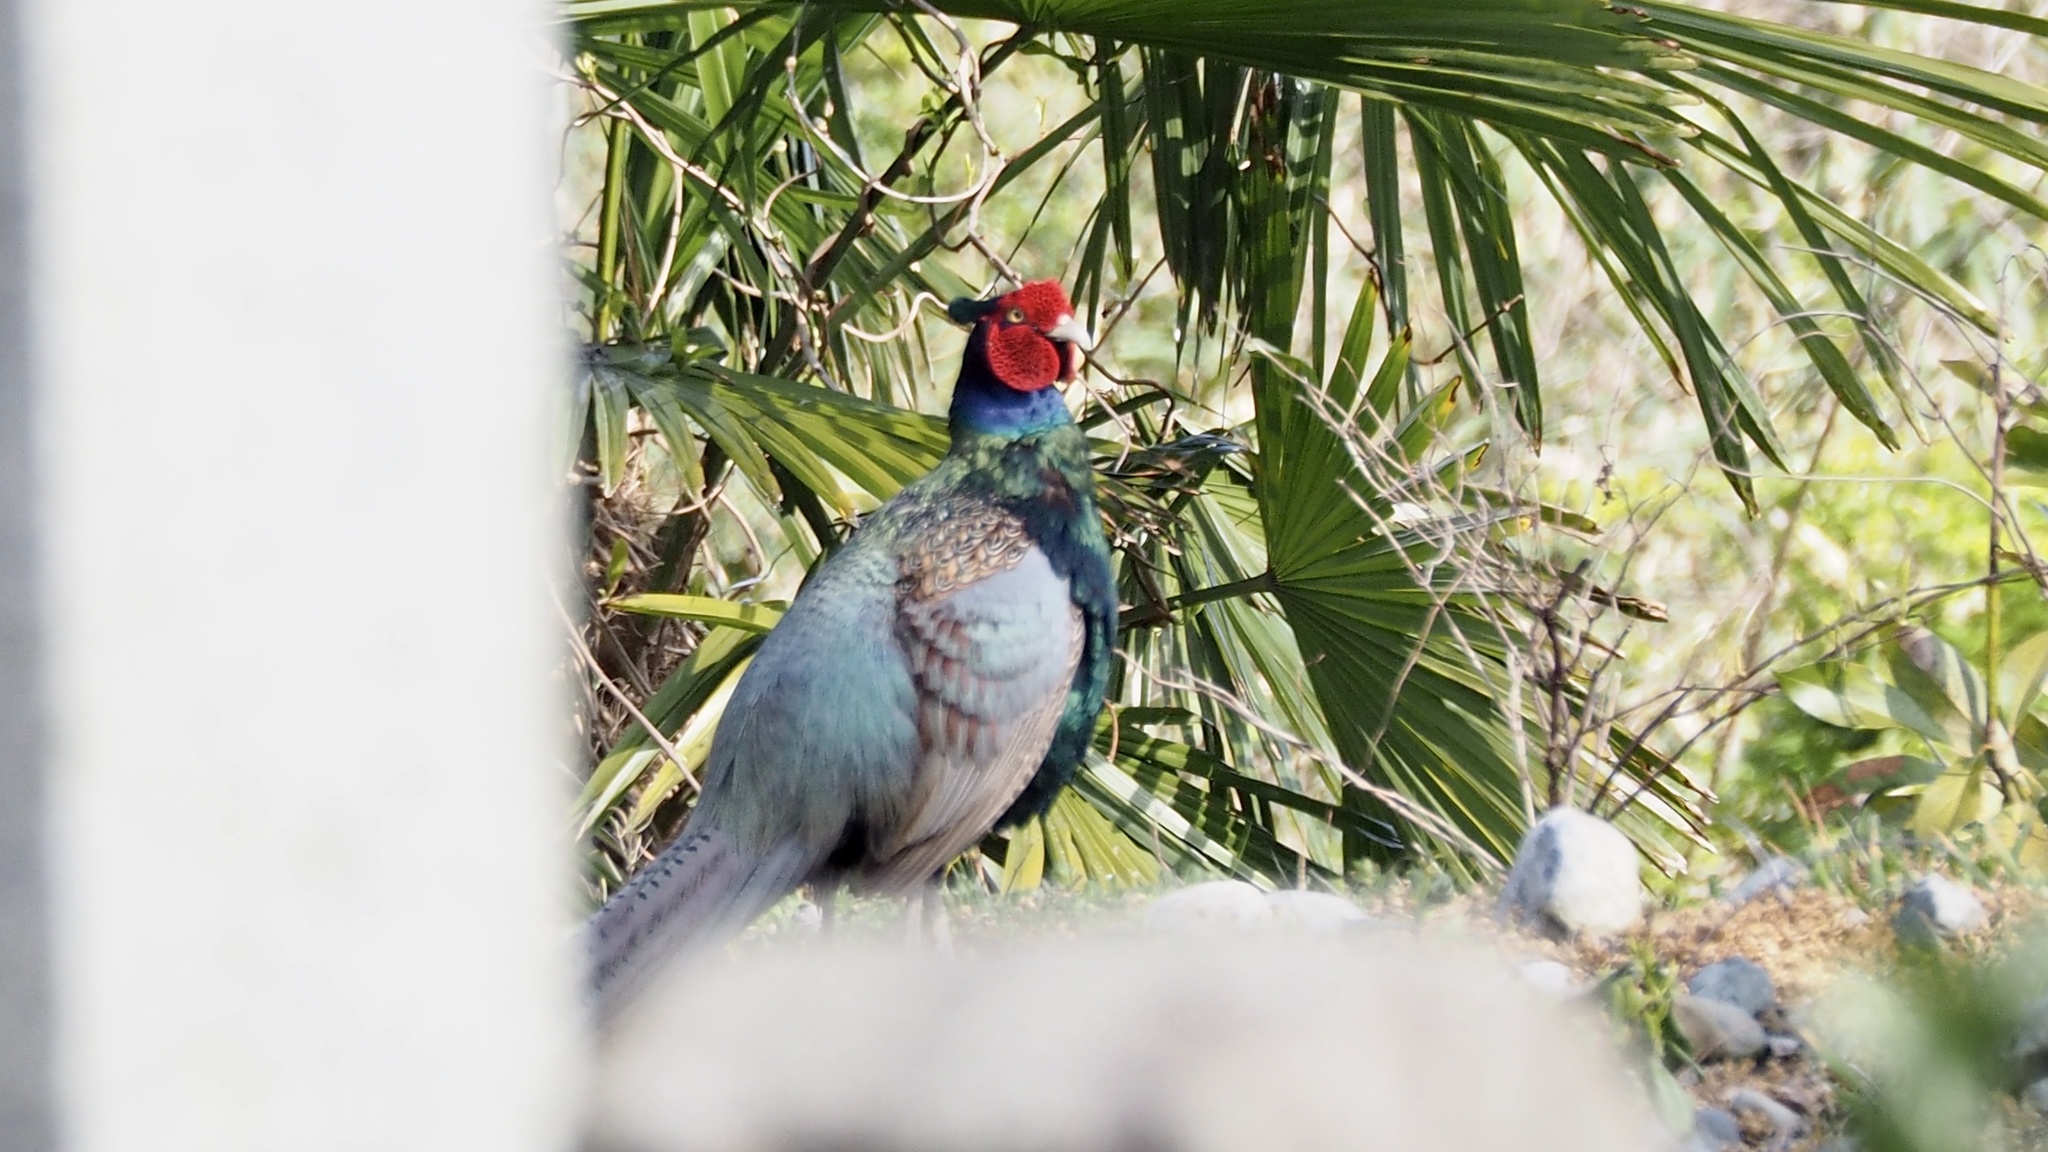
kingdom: Animalia
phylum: Chordata
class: Aves
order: Galliformes
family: Phasianidae
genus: Phasianus
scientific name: Phasianus versicolor
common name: Green pheasant
